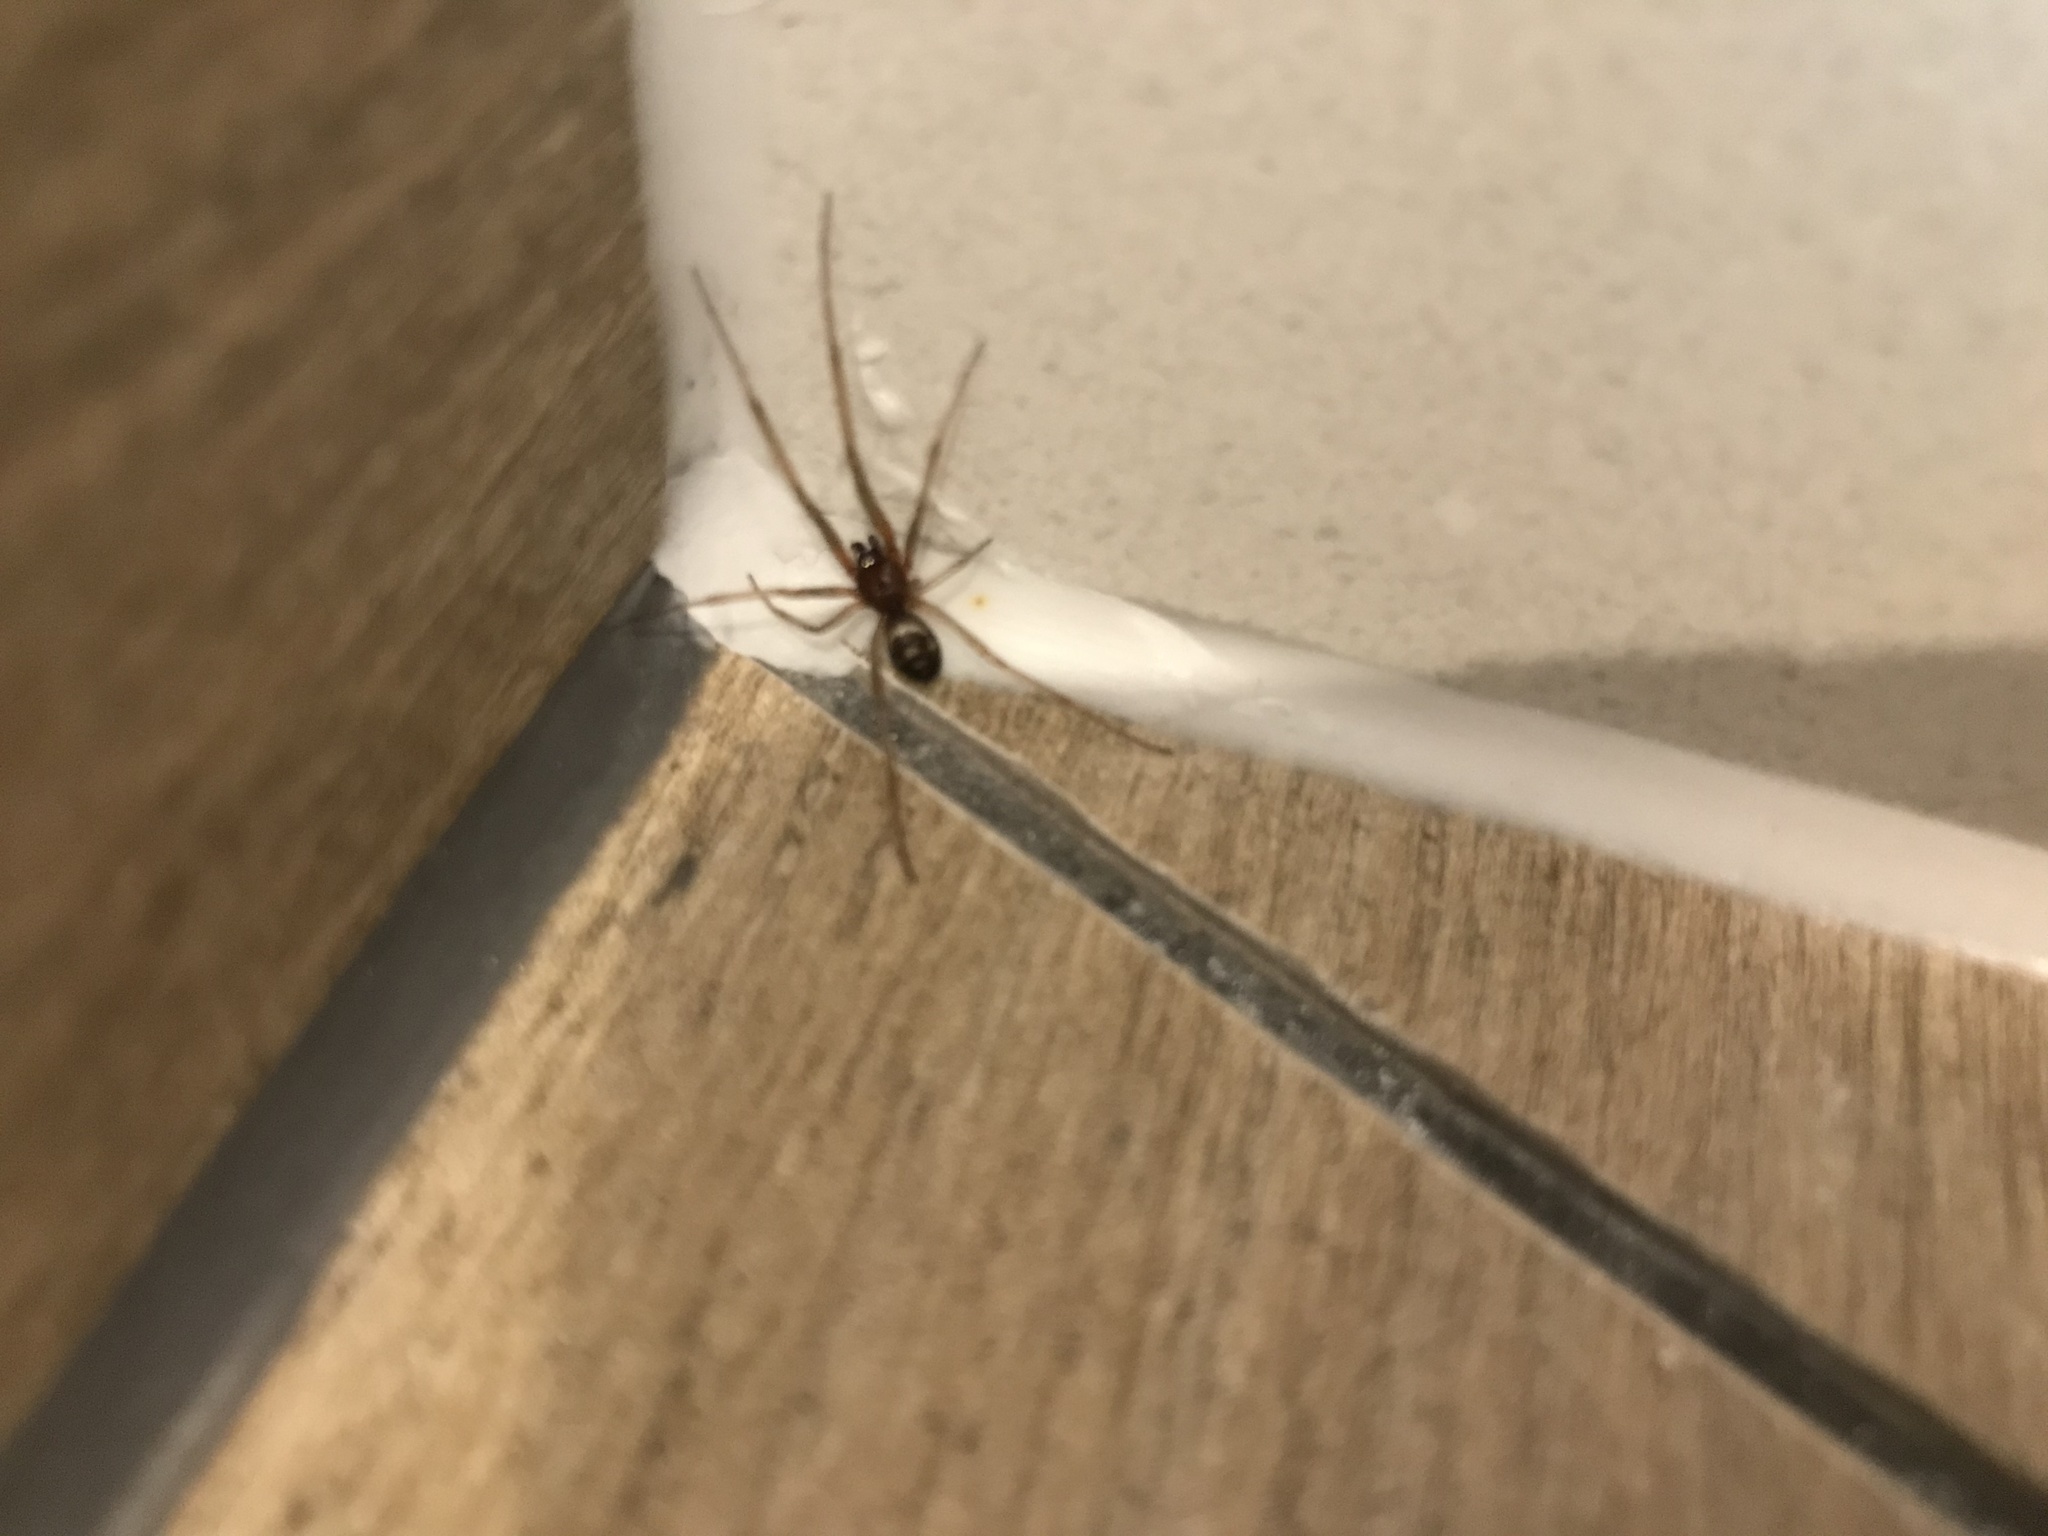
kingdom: Animalia
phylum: Arthropoda
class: Arachnida
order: Araneae
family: Theridiidae
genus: Steatoda
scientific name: Steatoda grossa
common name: False black widow
